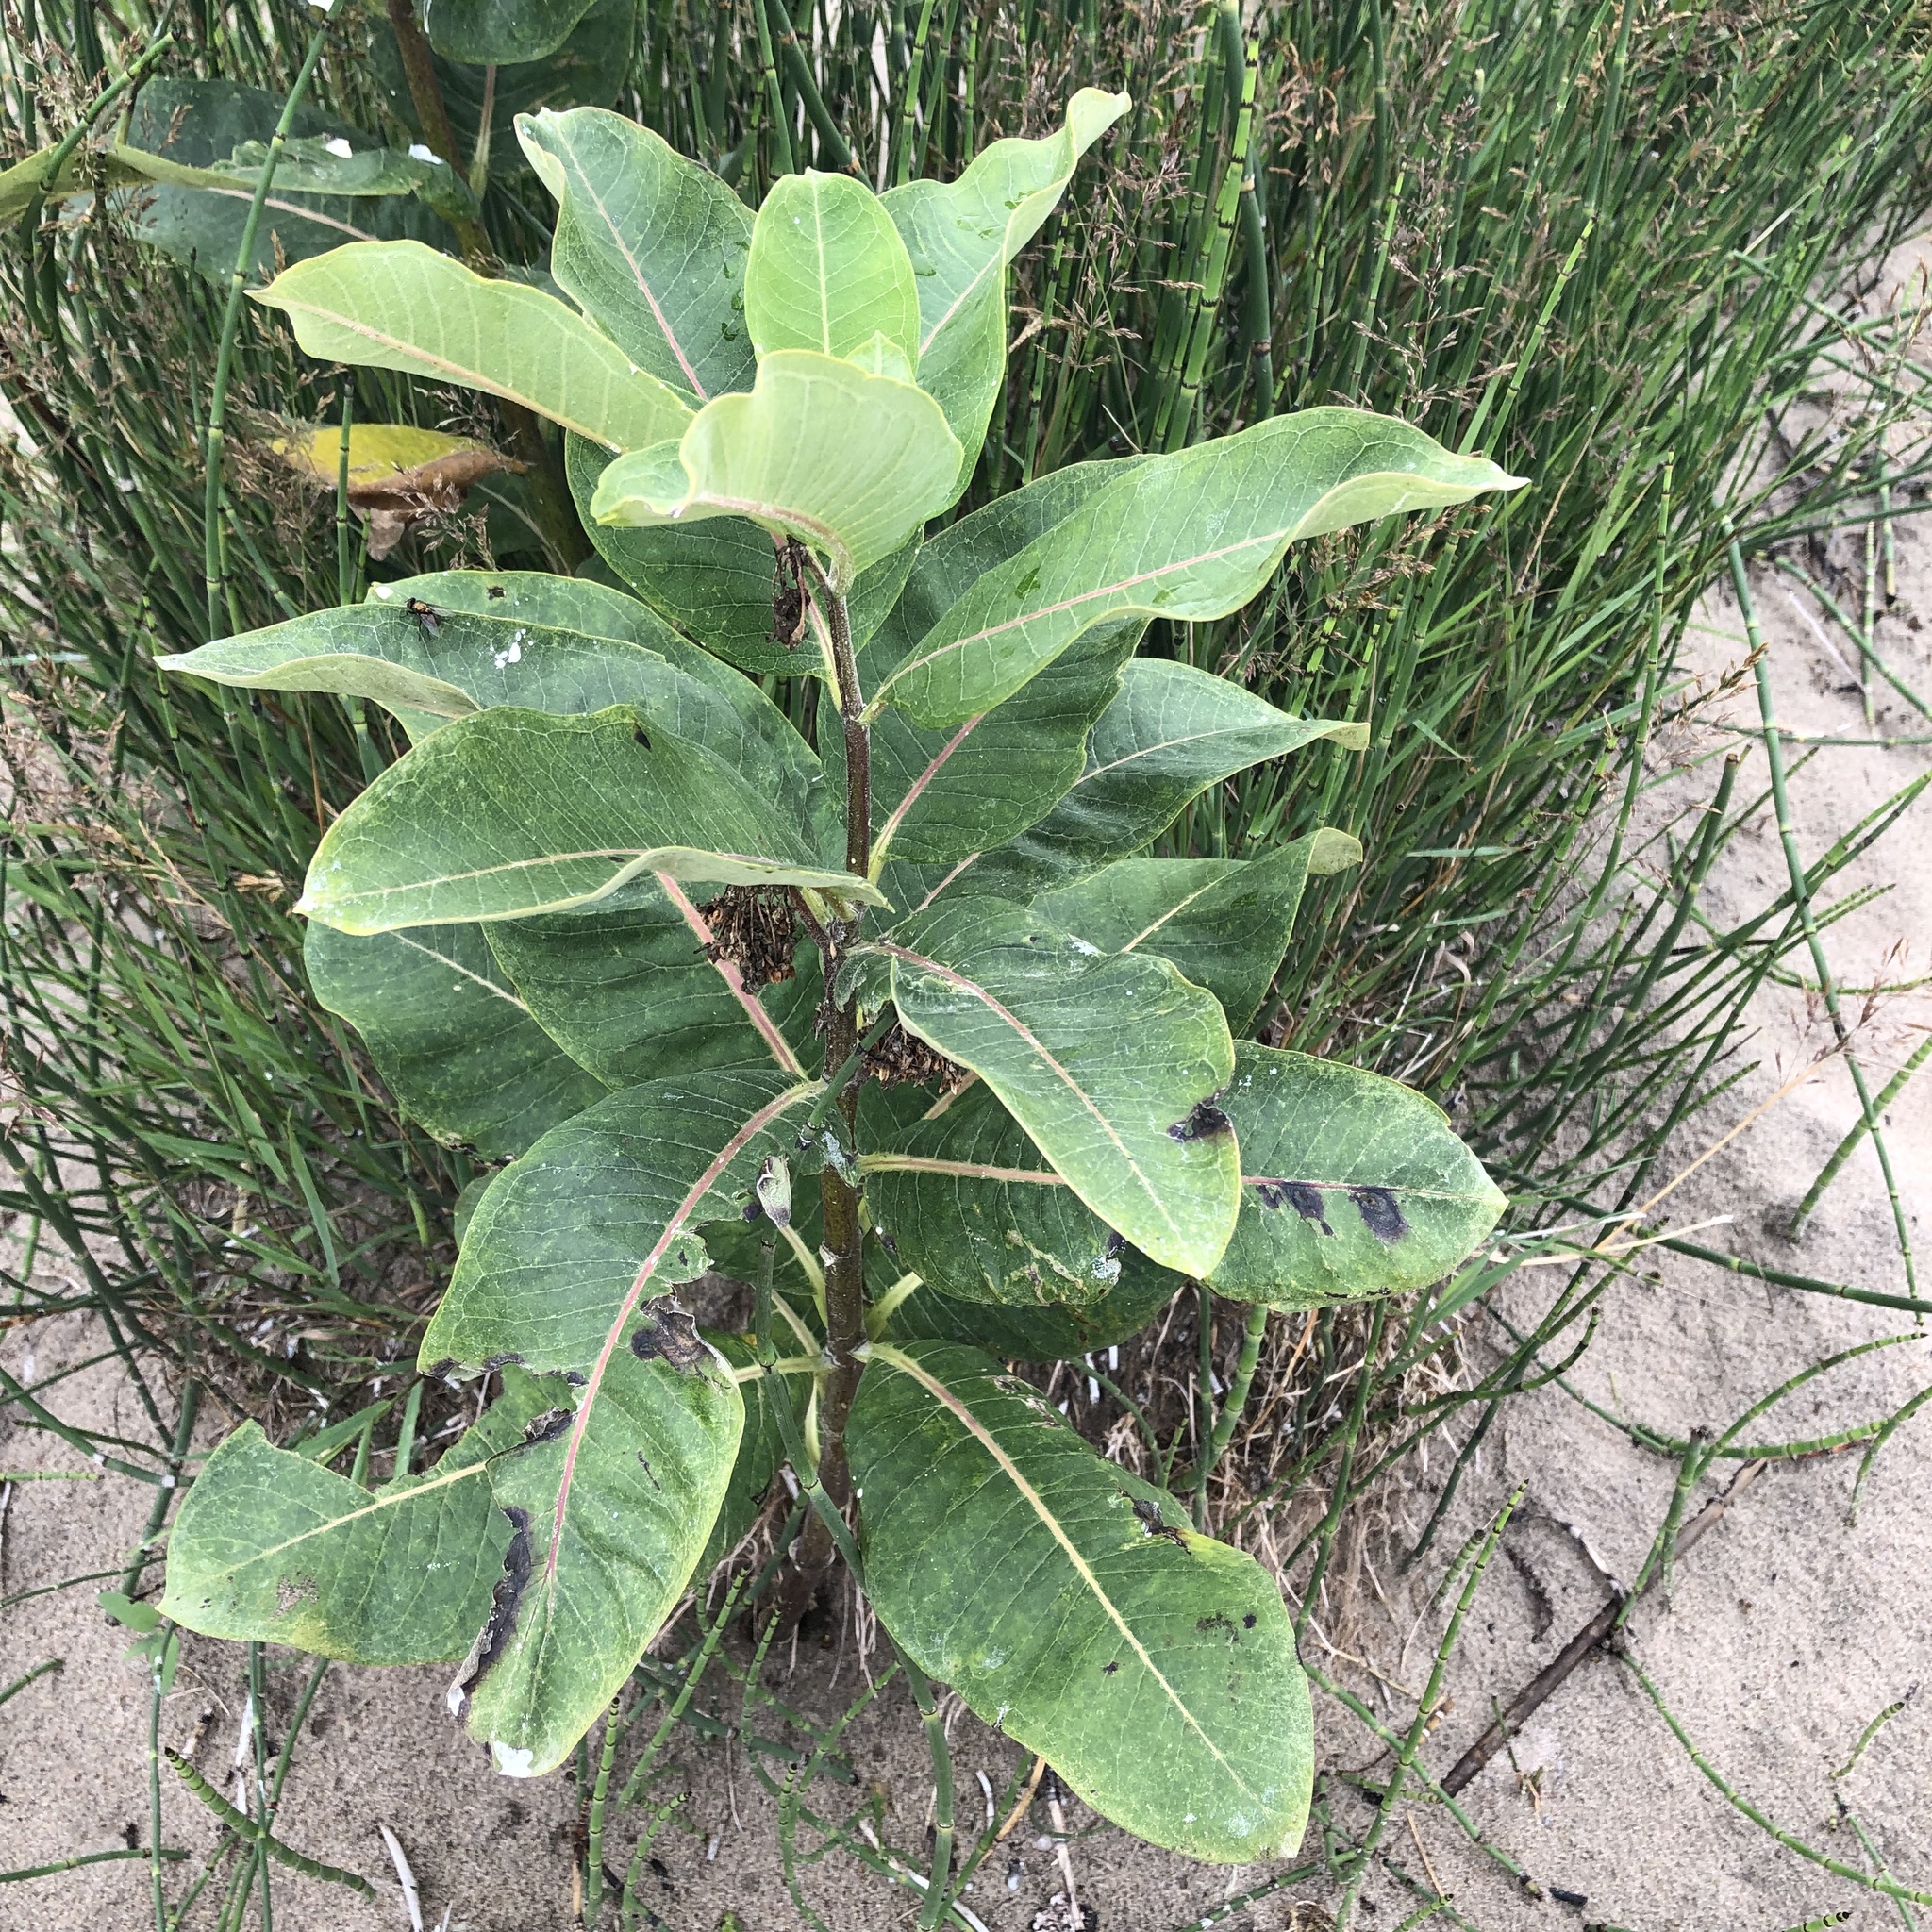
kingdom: Plantae
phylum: Tracheophyta
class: Magnoliopsida
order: Gentianales
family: Apocynaceae
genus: Asclepias
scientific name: Asclepias syriaca
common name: Common milkweed
